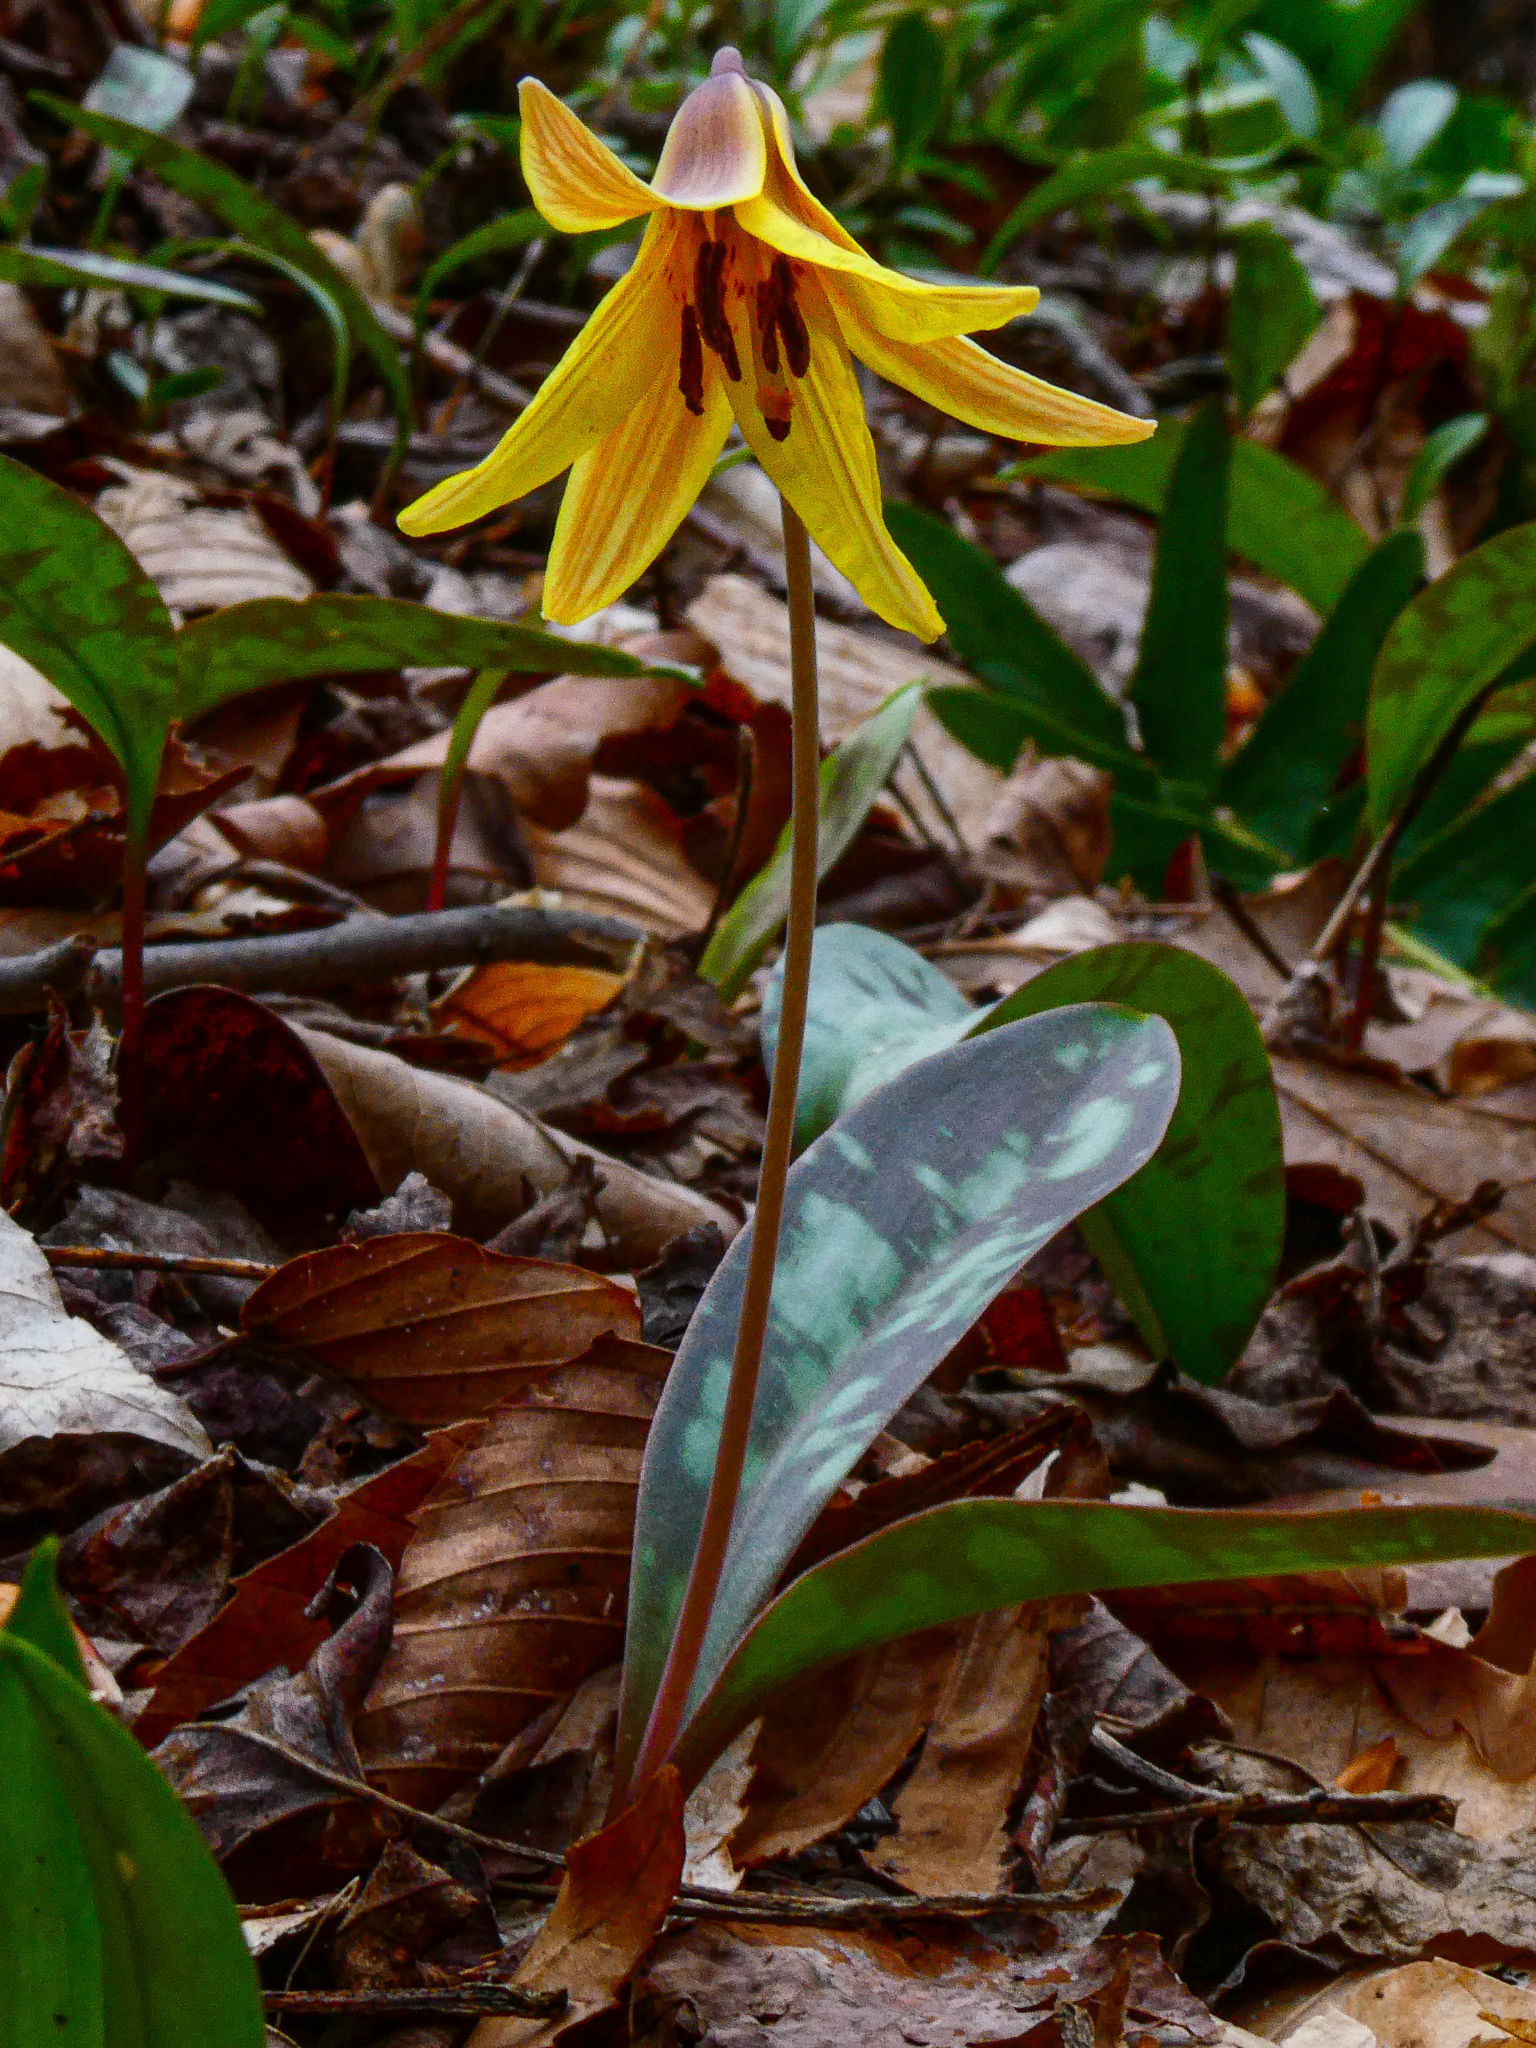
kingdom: Plantae
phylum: Tracheophyta
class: Liliopsida
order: Liliales
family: Liliaceae
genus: Erythronium
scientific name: Erythronium americanum
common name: Yellow adder's-tongue
